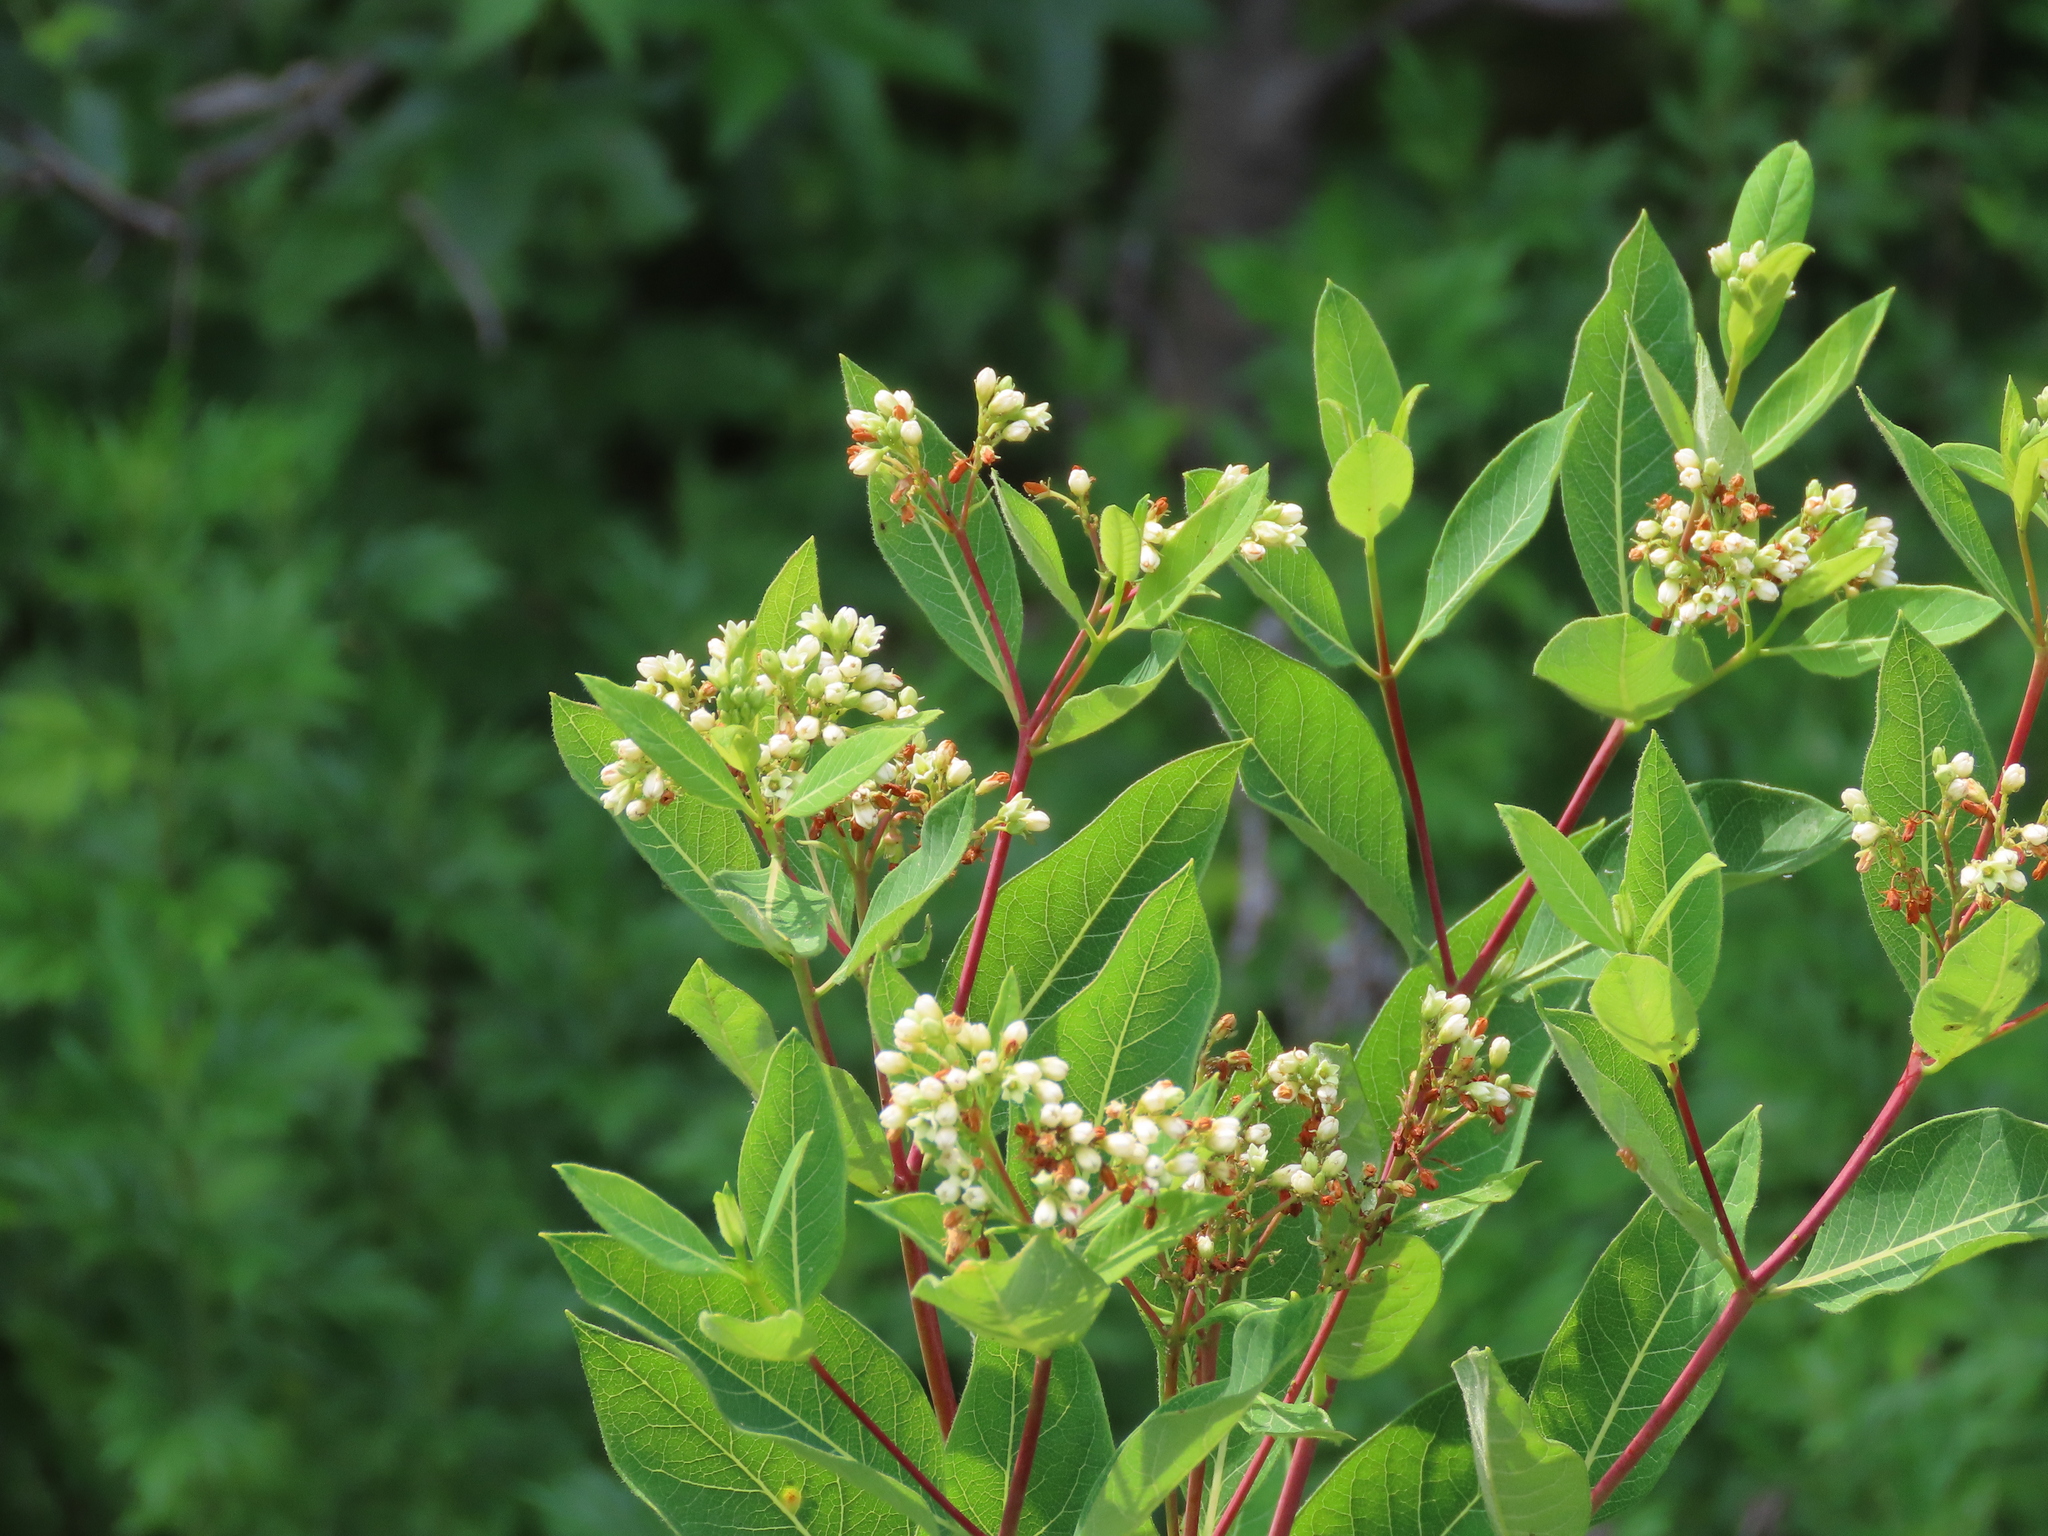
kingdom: Plantae
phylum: Tracheophyta
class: Magnoliopsida
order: Gentianales
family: Apocynaceae
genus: Apocynum
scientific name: Apocynum cannabinum
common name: Hemp dogbane
